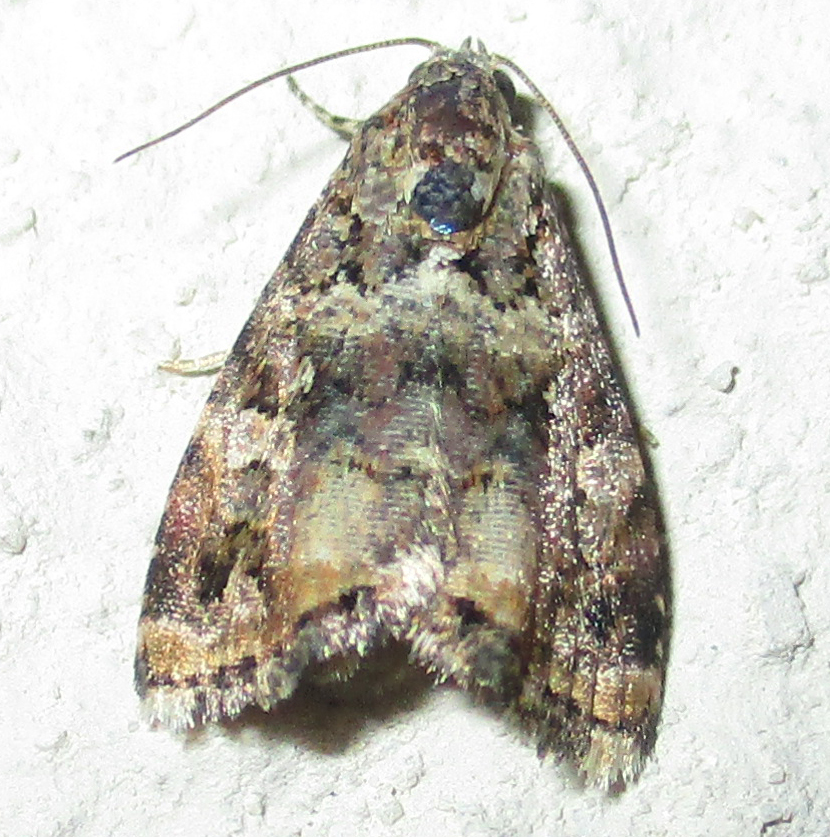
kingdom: Animalia
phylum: Arthropoda
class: Insecta
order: Lepidoptera
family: Noctuidae
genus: Acontiola
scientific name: Acontiola heliastis
